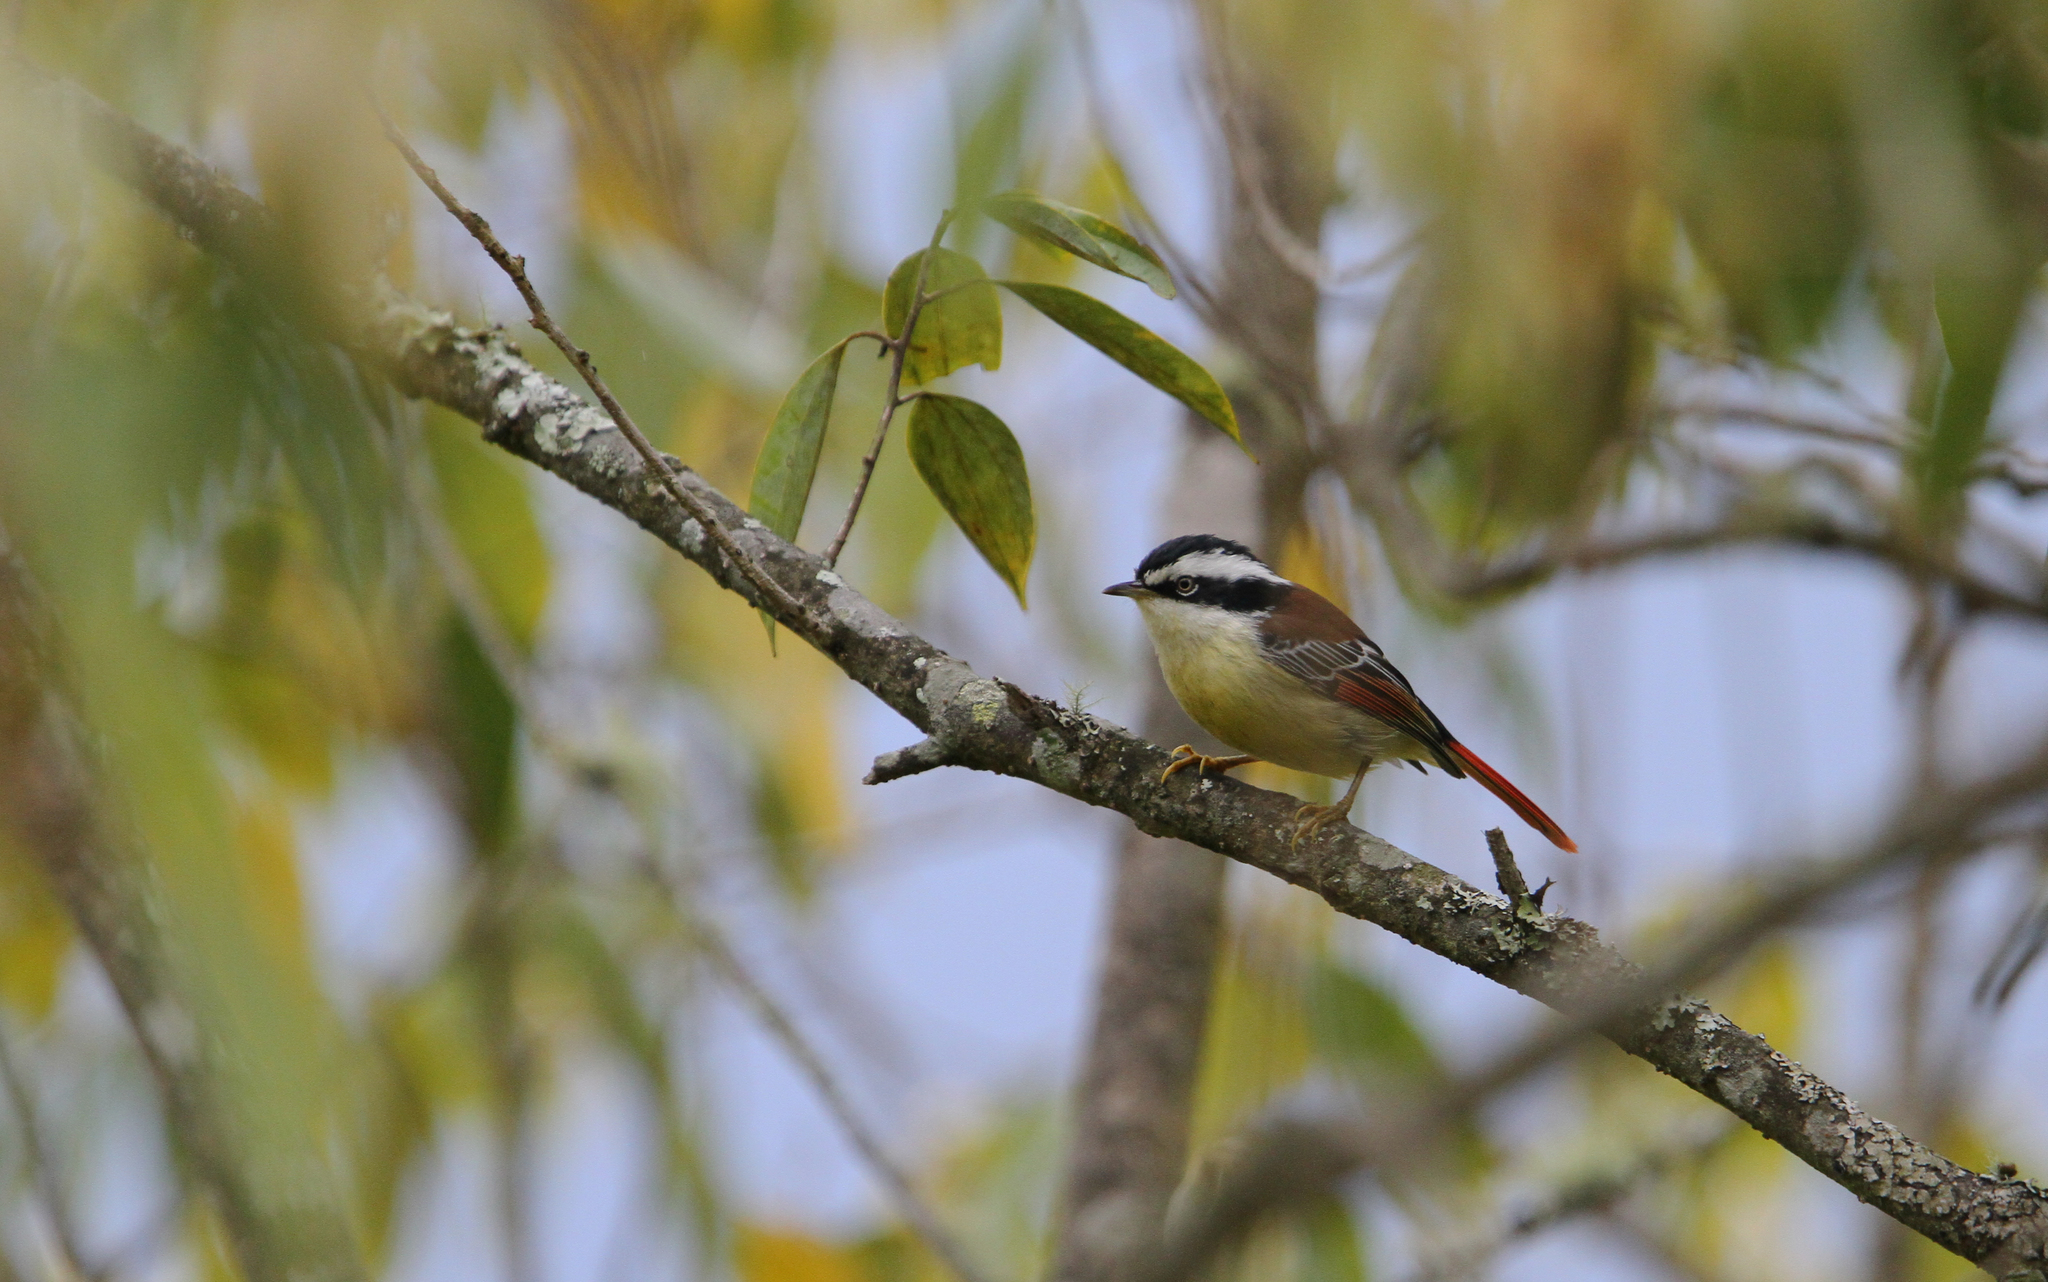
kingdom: Animalia
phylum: Chordata
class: Aves
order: Passeriformes
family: Leiothrichidae
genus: Minla
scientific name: Minla ignotincta
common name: Red-tailed minla
